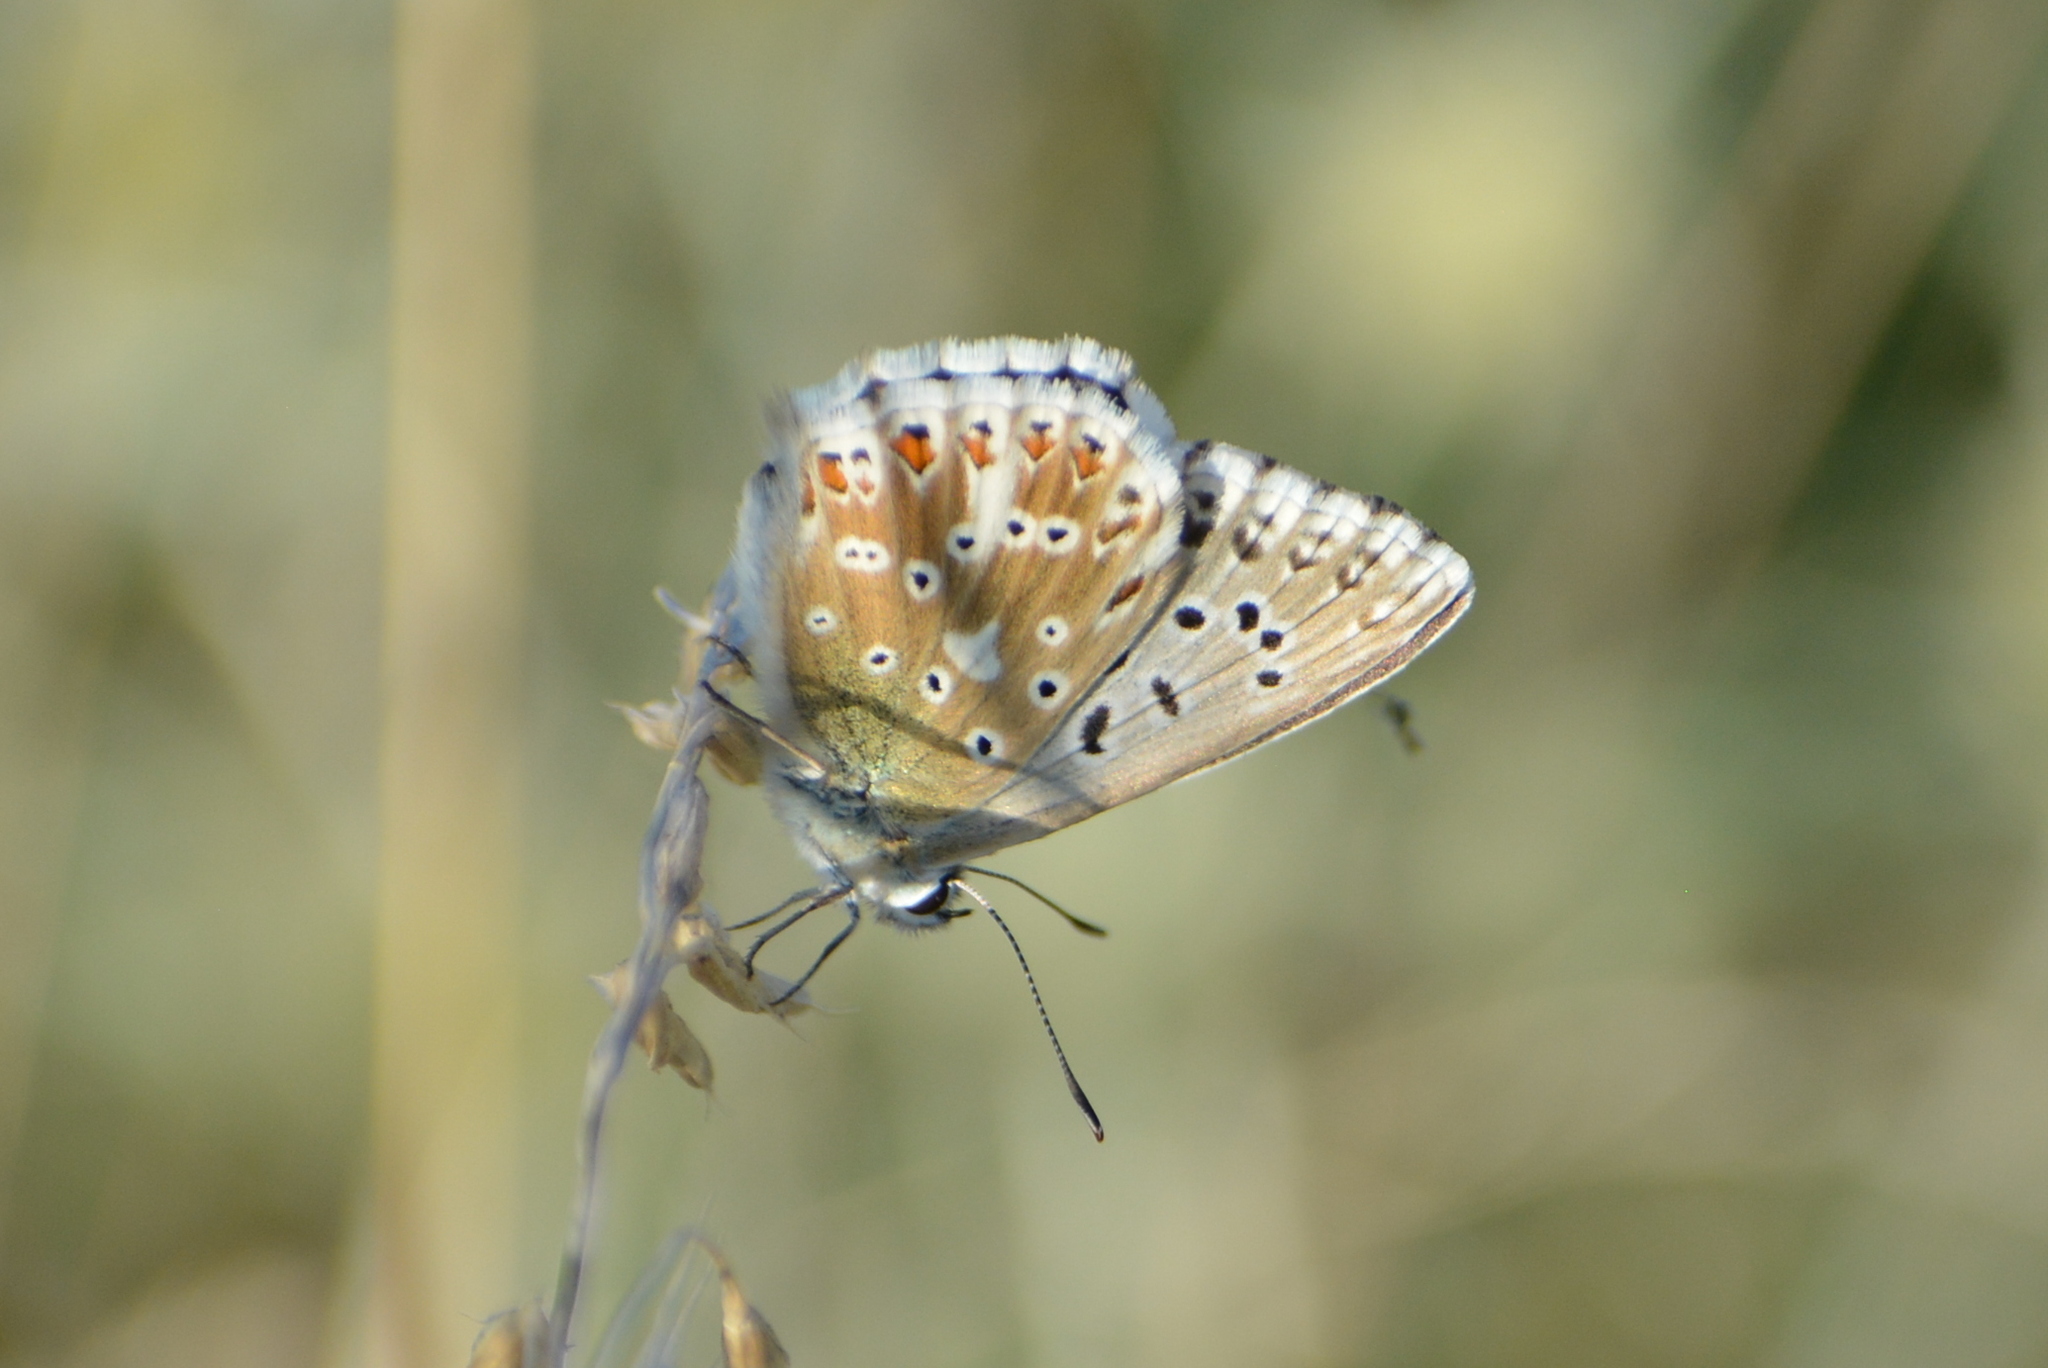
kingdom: Animalia
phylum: Arthropoda
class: Insecta
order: Lepidoptera
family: Lycaenidae
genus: Lysandra
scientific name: Lysandra coridon
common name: Chalkhill blue
